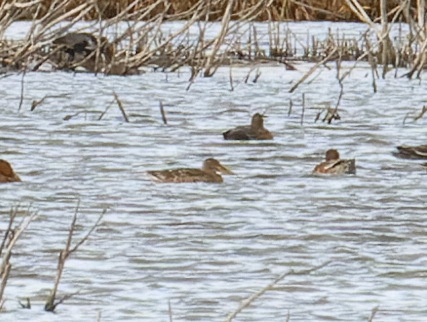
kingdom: Animalia
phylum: Chordata
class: Aves
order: Anseriformes
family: Anatidae
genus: Spatula
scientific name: Spatula clypeata
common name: Northern shoveler
